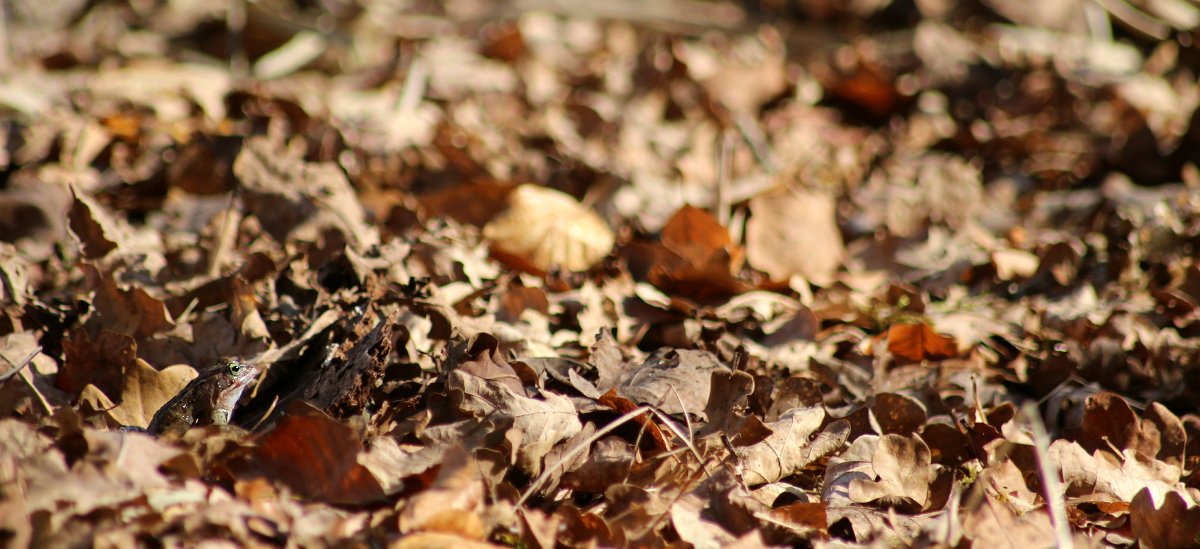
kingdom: Animalia
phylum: Chordata
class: Amphibia
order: Anura
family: Ranidae
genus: Rana
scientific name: Rana arvalis
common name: Moor frog
